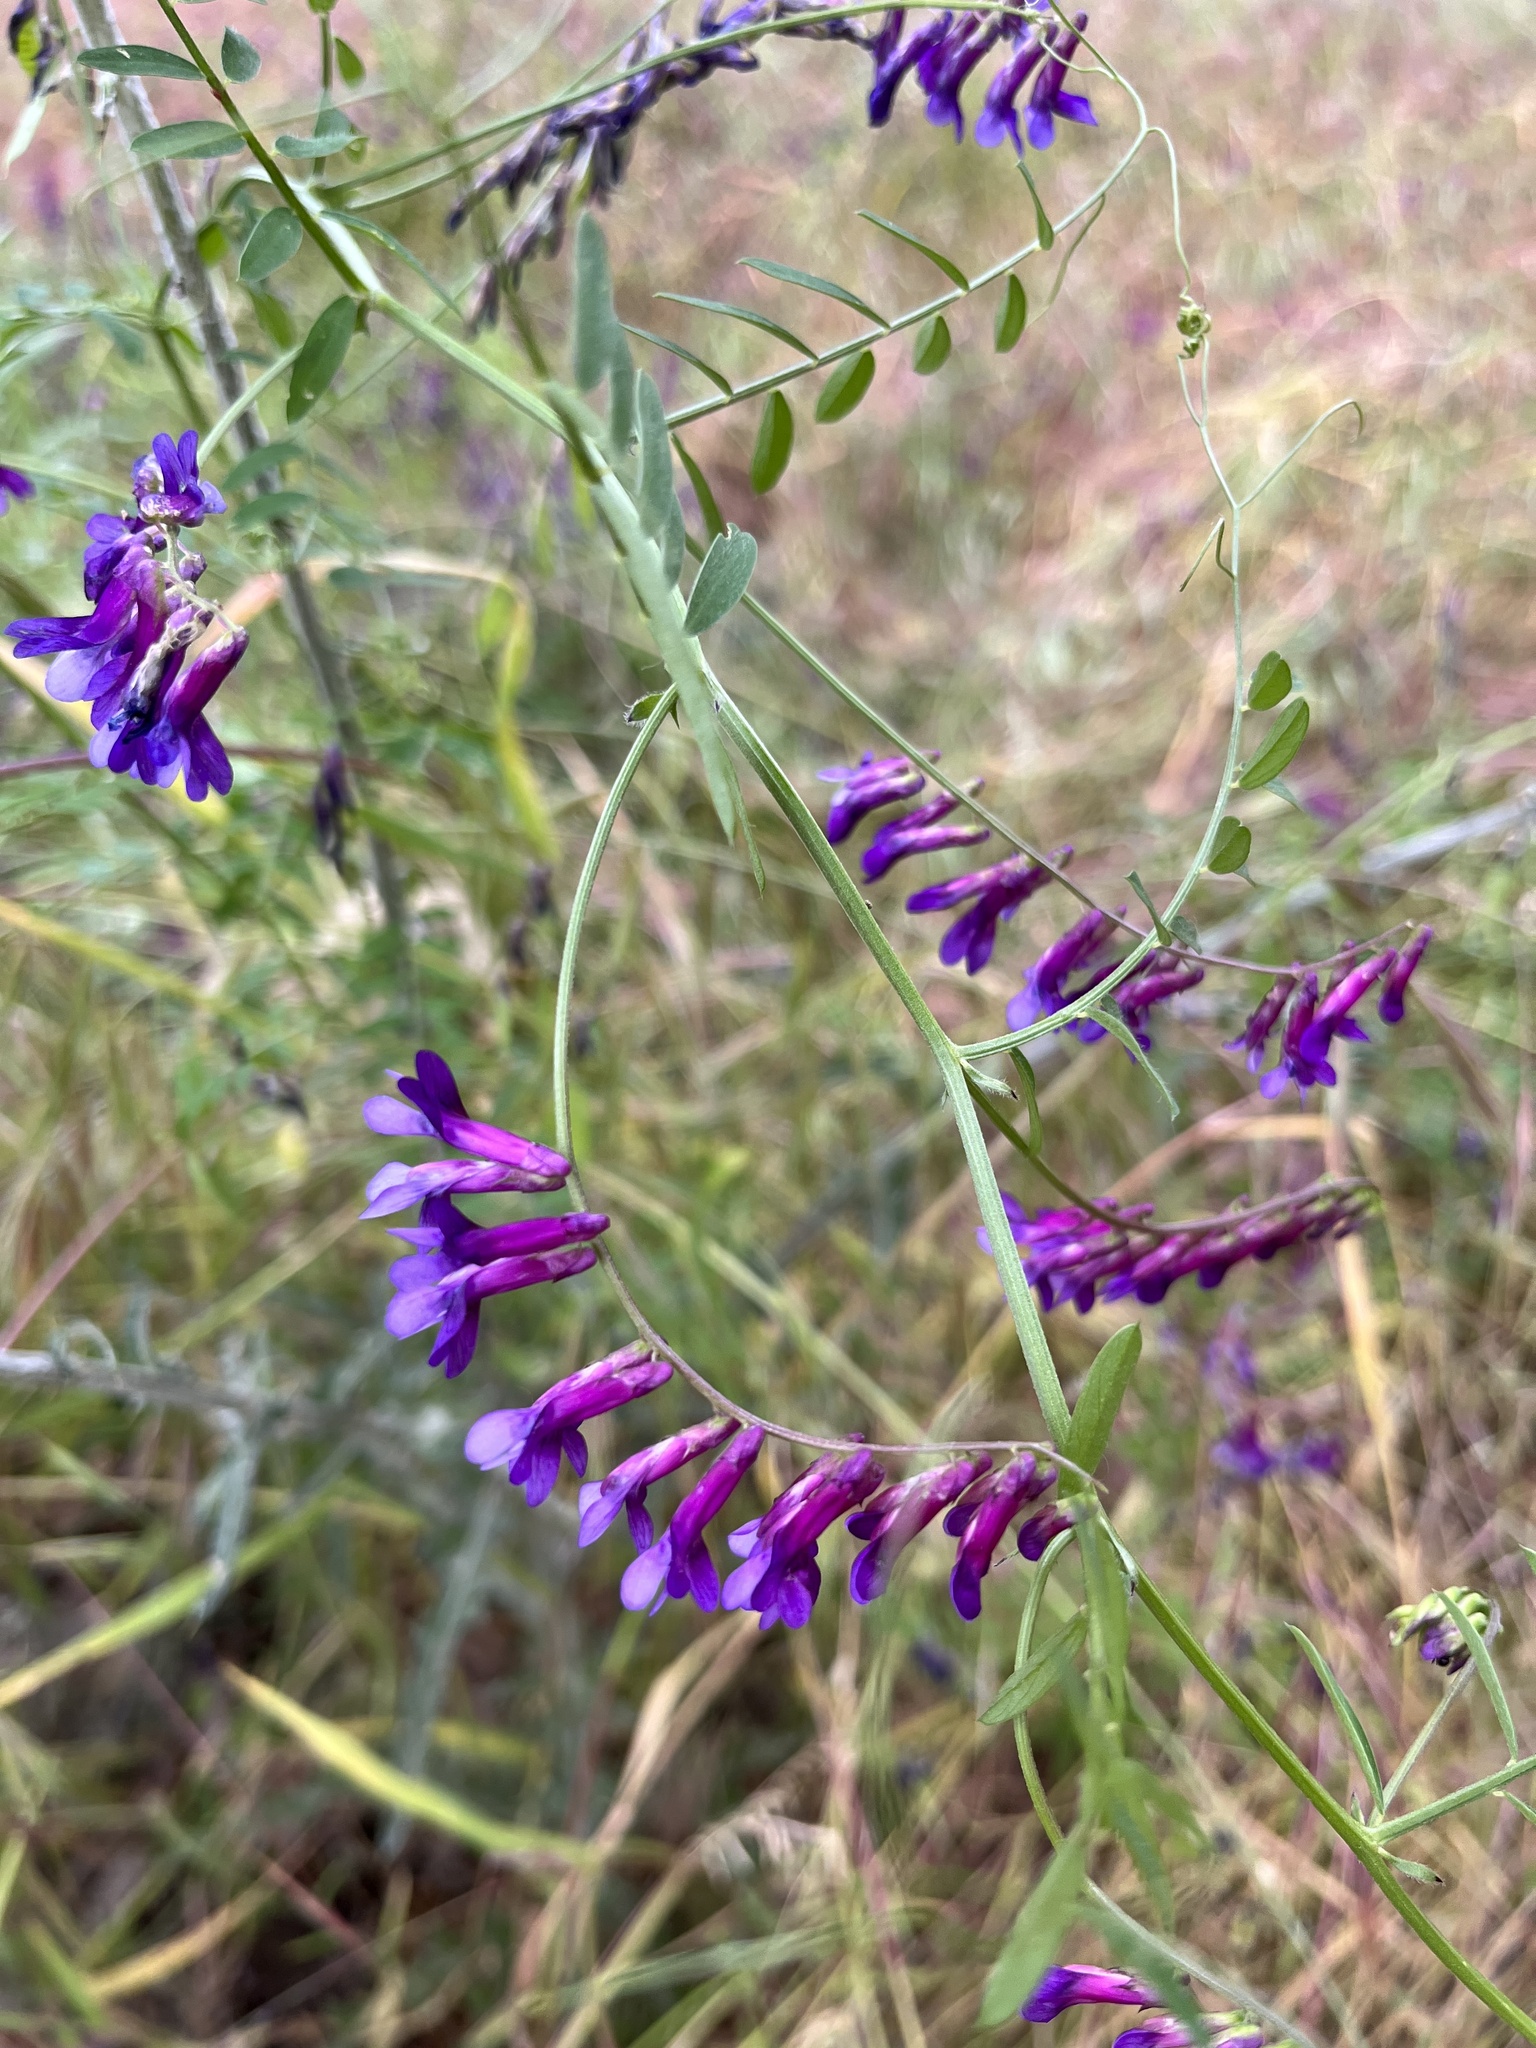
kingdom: Plantae
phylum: Tracheophyta
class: Magnoliopsida
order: Fabales
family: Fabaceae
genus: Vicia
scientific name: Vicia villosa
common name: Fodder vetch
